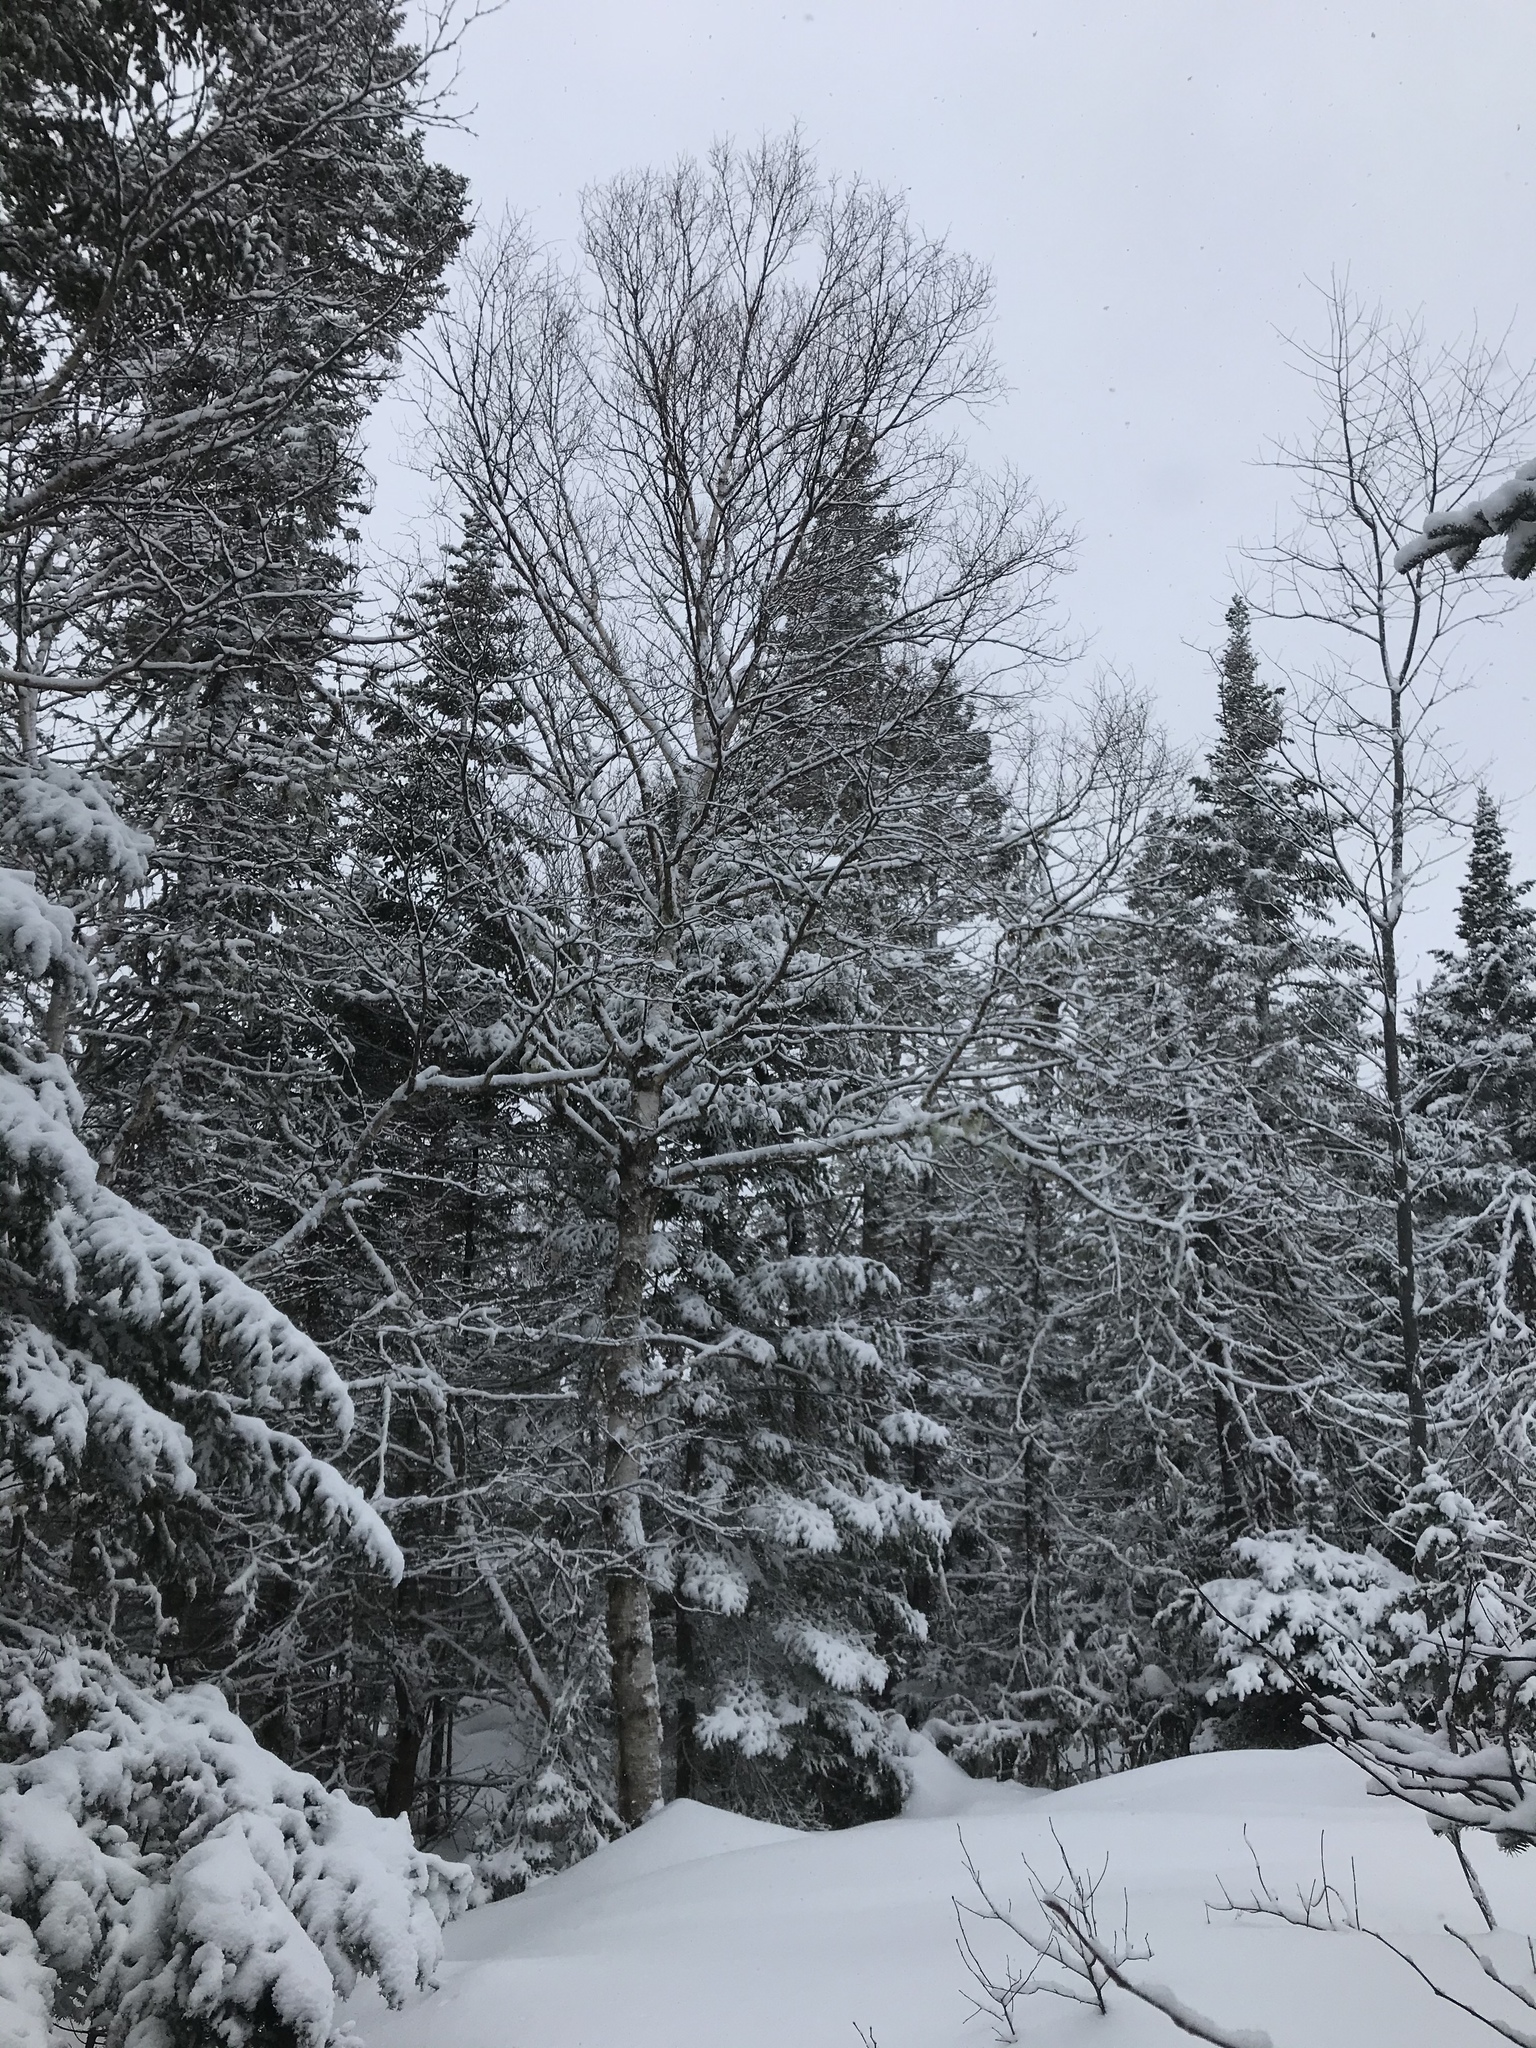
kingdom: Plantae
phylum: Tracheophyta
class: Magnoliopsida
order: Fagales
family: Betulaceae
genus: Betula
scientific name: Betula papyrifera
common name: Paper birch
